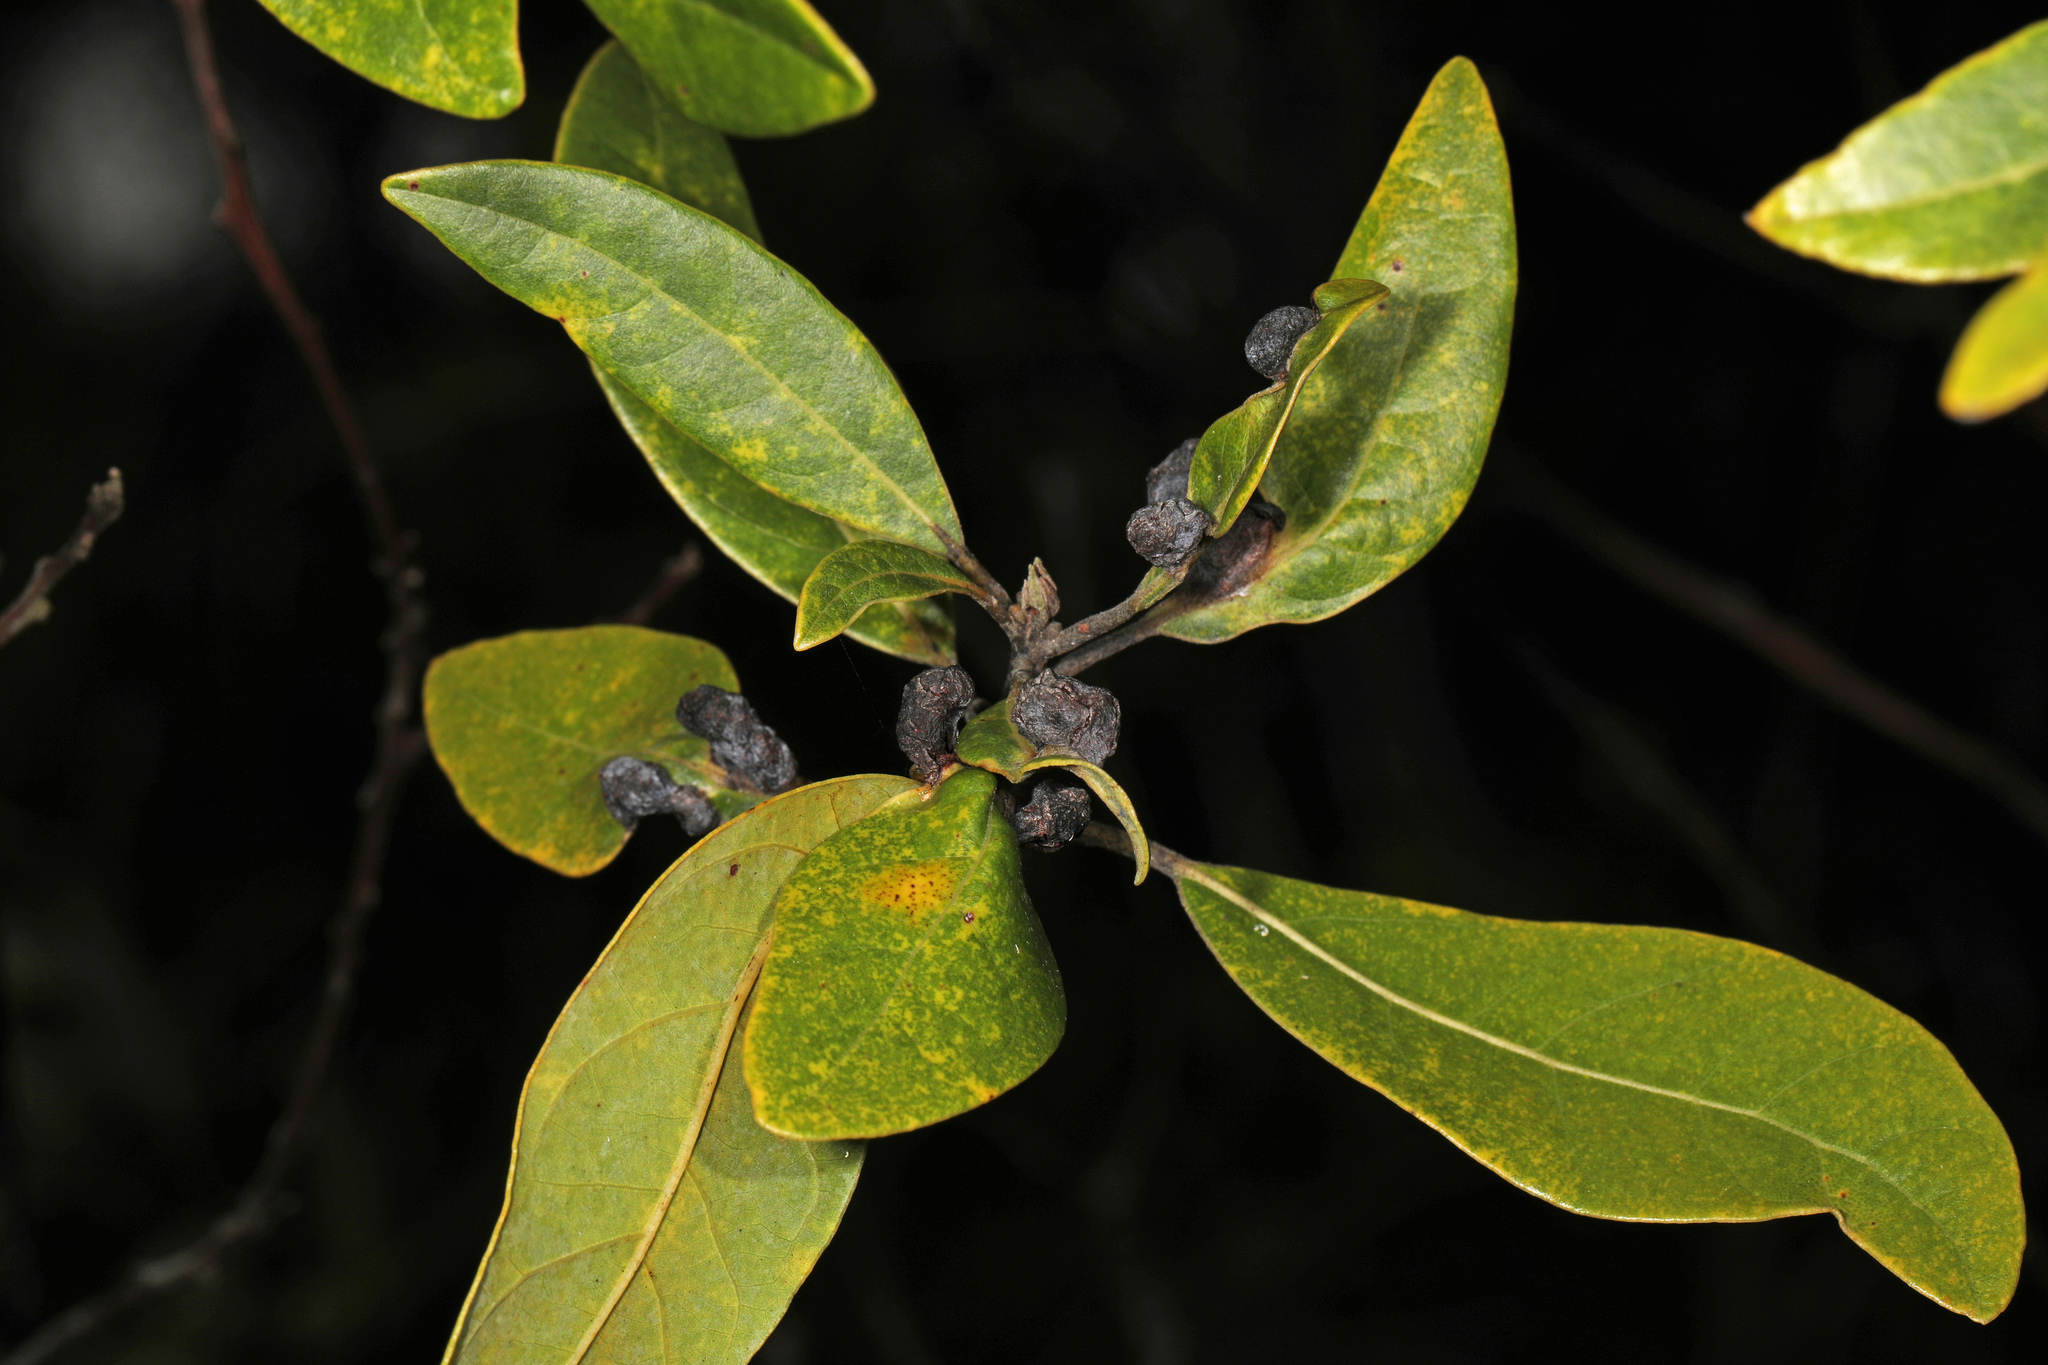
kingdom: Animalia
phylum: Arthropoda
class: Insecta
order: Hemiptera
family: Triozidae
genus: Trioza
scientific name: Trioza magnoliae
